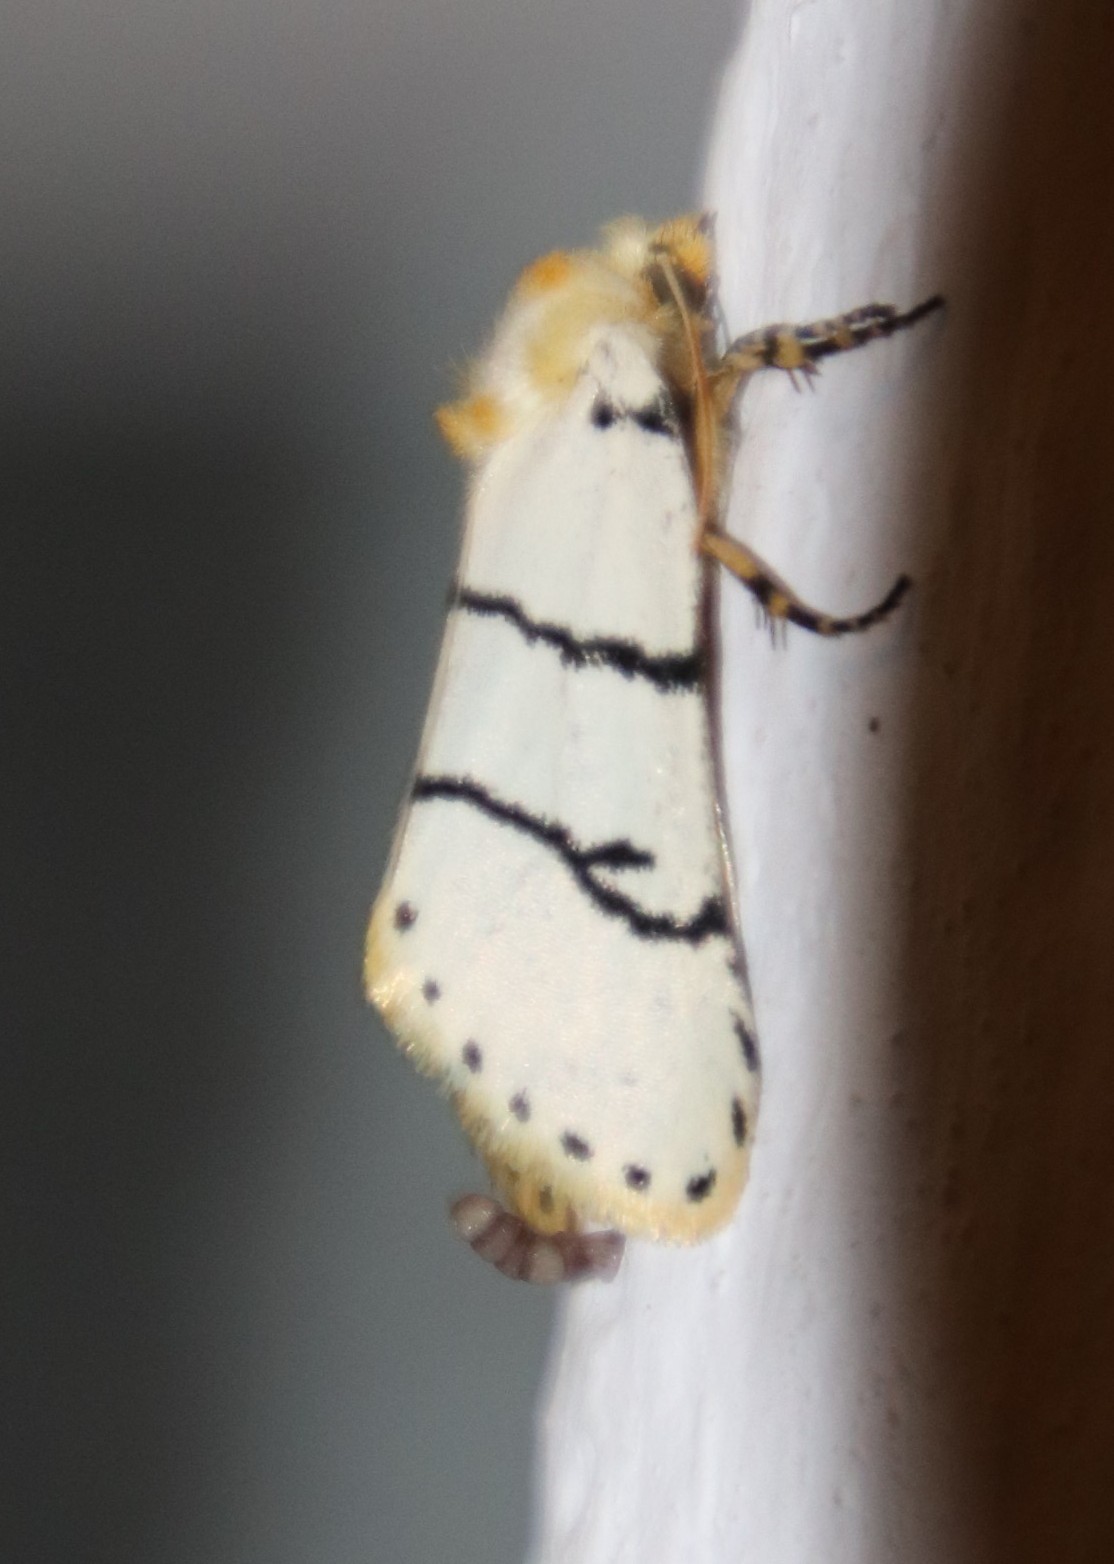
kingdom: Animalia
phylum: Arthropoda
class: Insecta
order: Lepidoptera
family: Erebidae
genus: Proschaliphora
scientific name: Proschaliphora butti
